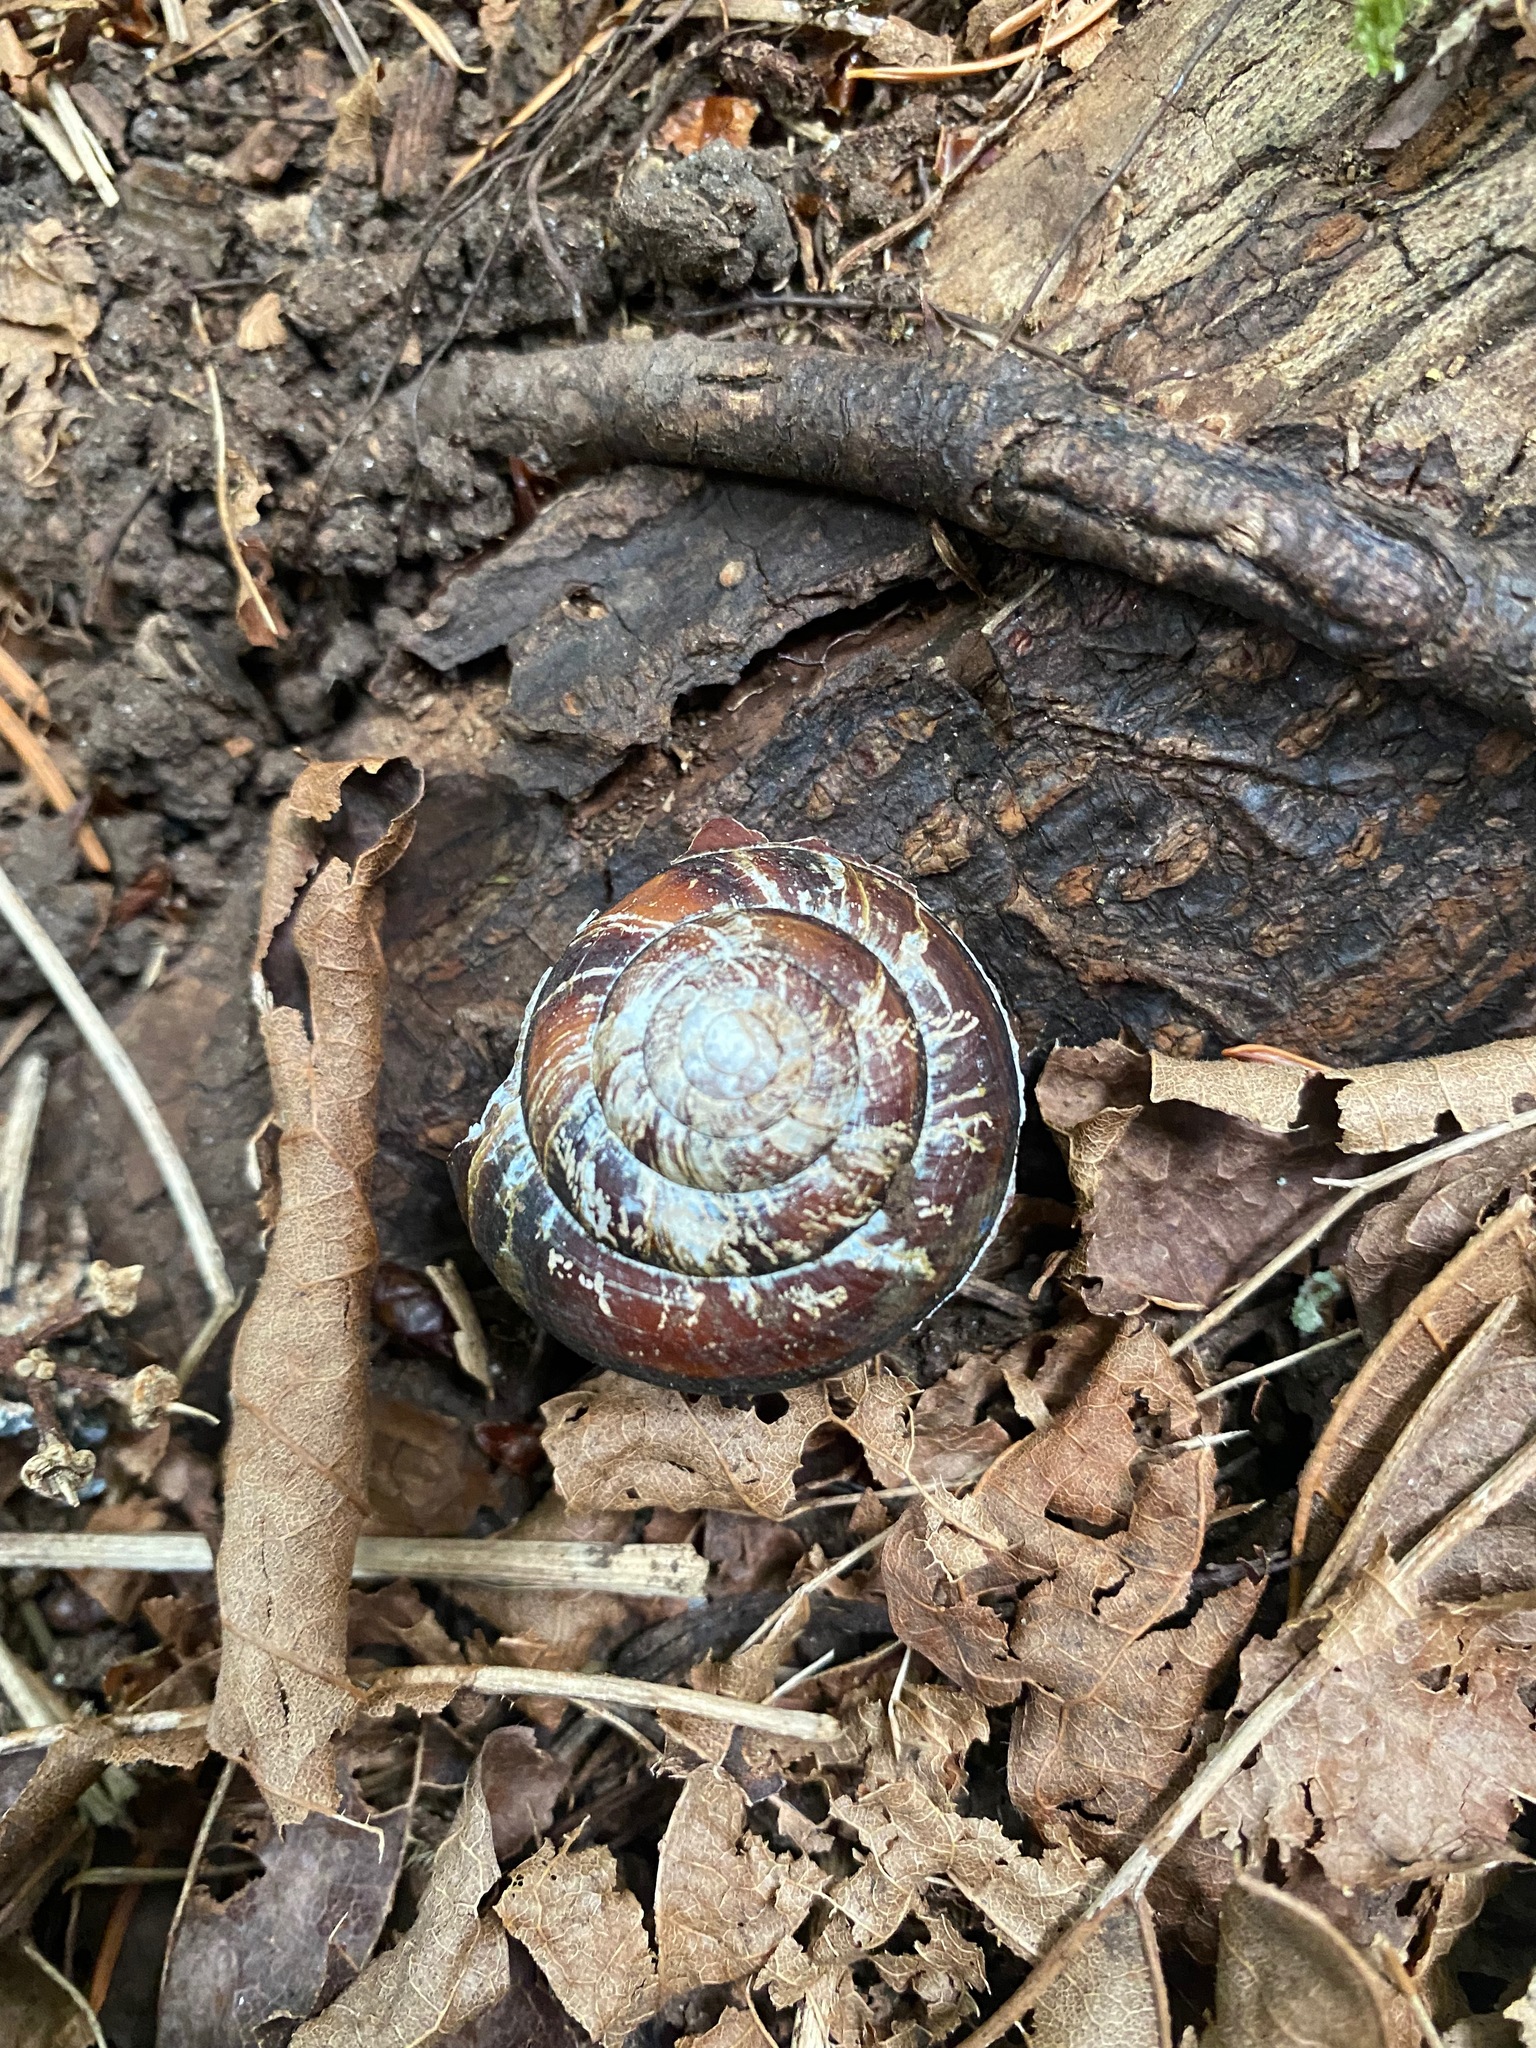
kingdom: Animalia
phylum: Mollusca
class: Gastropoda
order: Stylommatophora
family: Xanthonychidae
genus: Monadenia
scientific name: Monadenia fidelis
